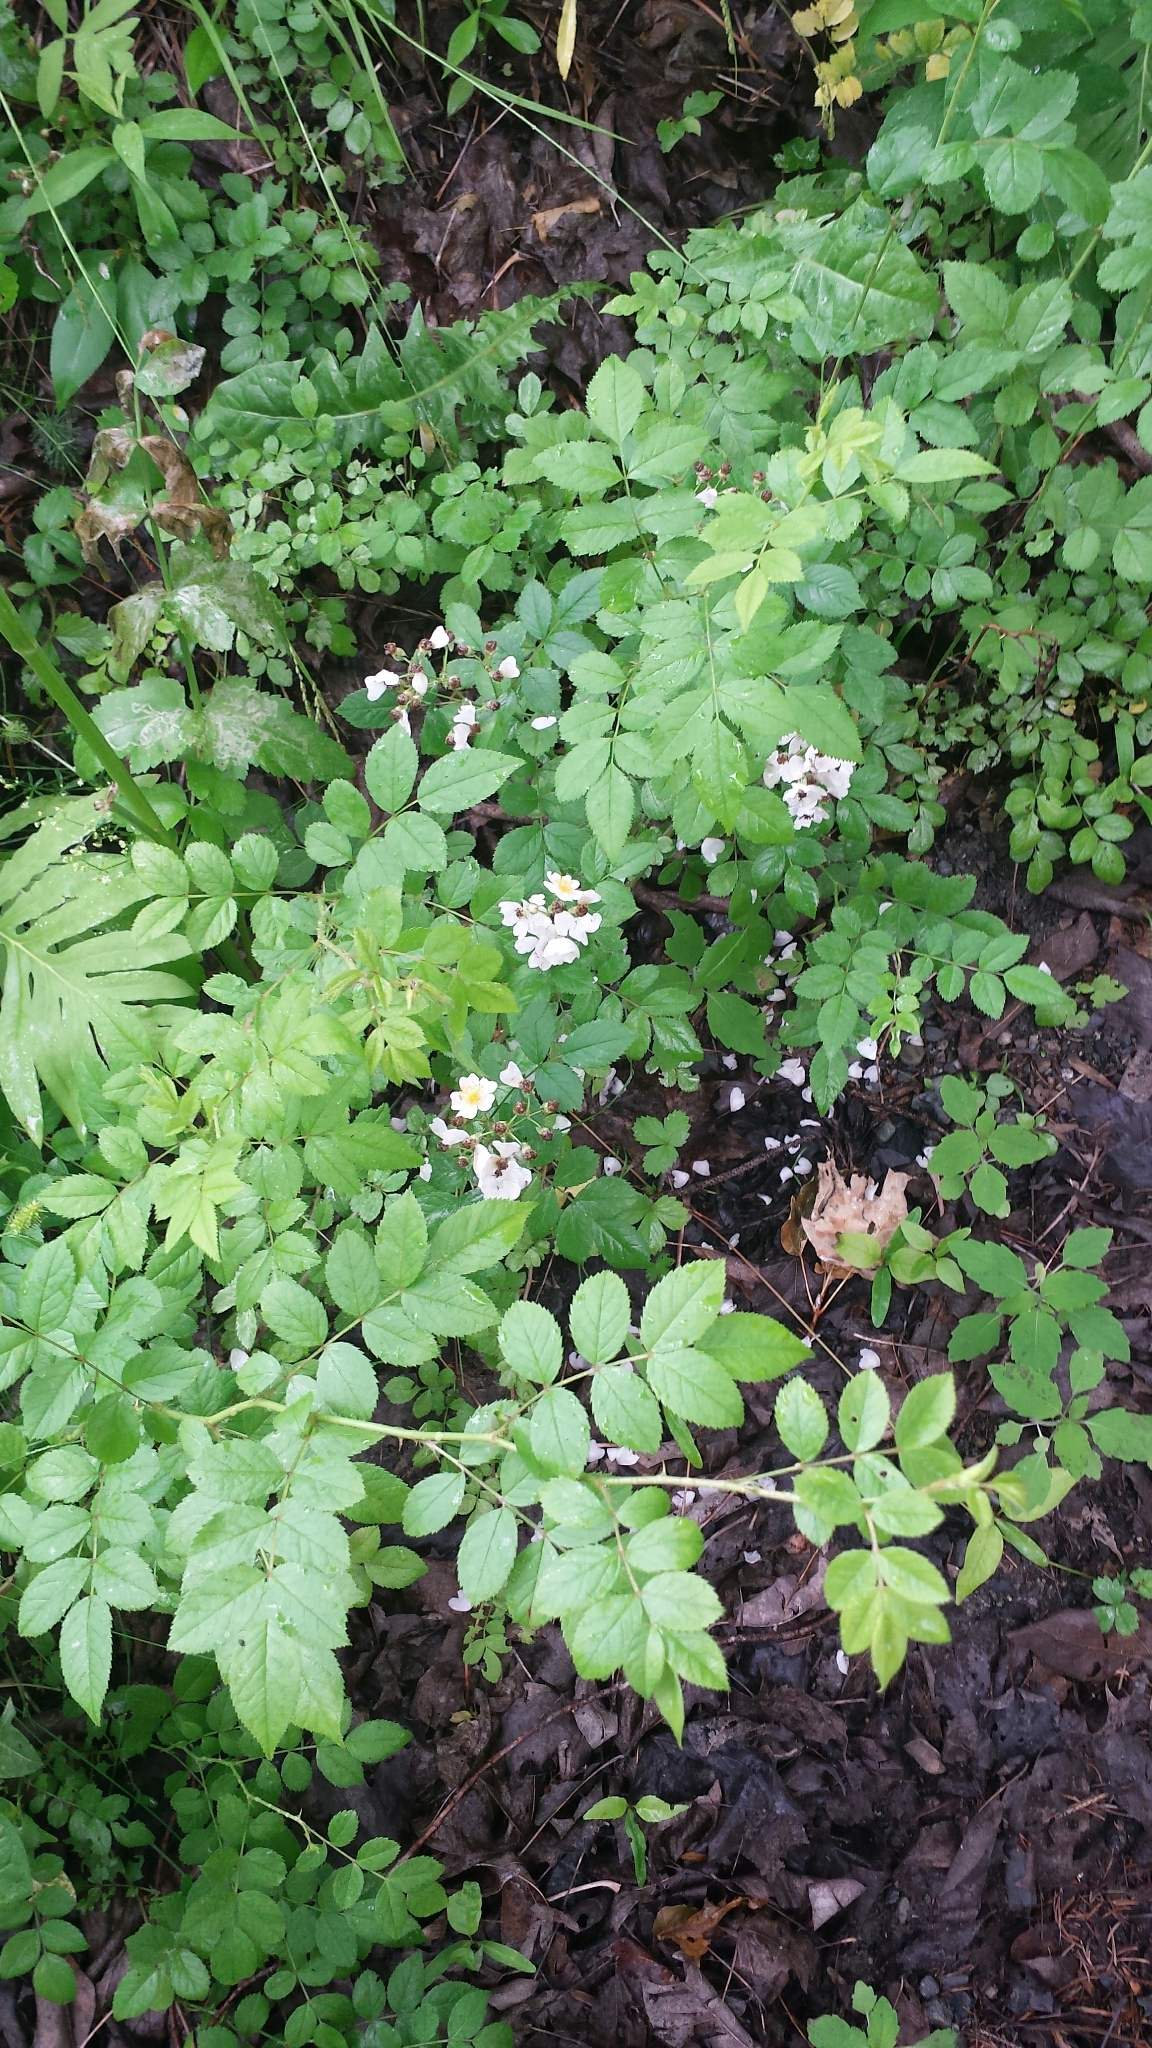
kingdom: Plantae
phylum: Tracheophyta
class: Magnoliopsida
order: Rosales
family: Rosaceae
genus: Rosa
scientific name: Rosa multiflora
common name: Multiflora rose
